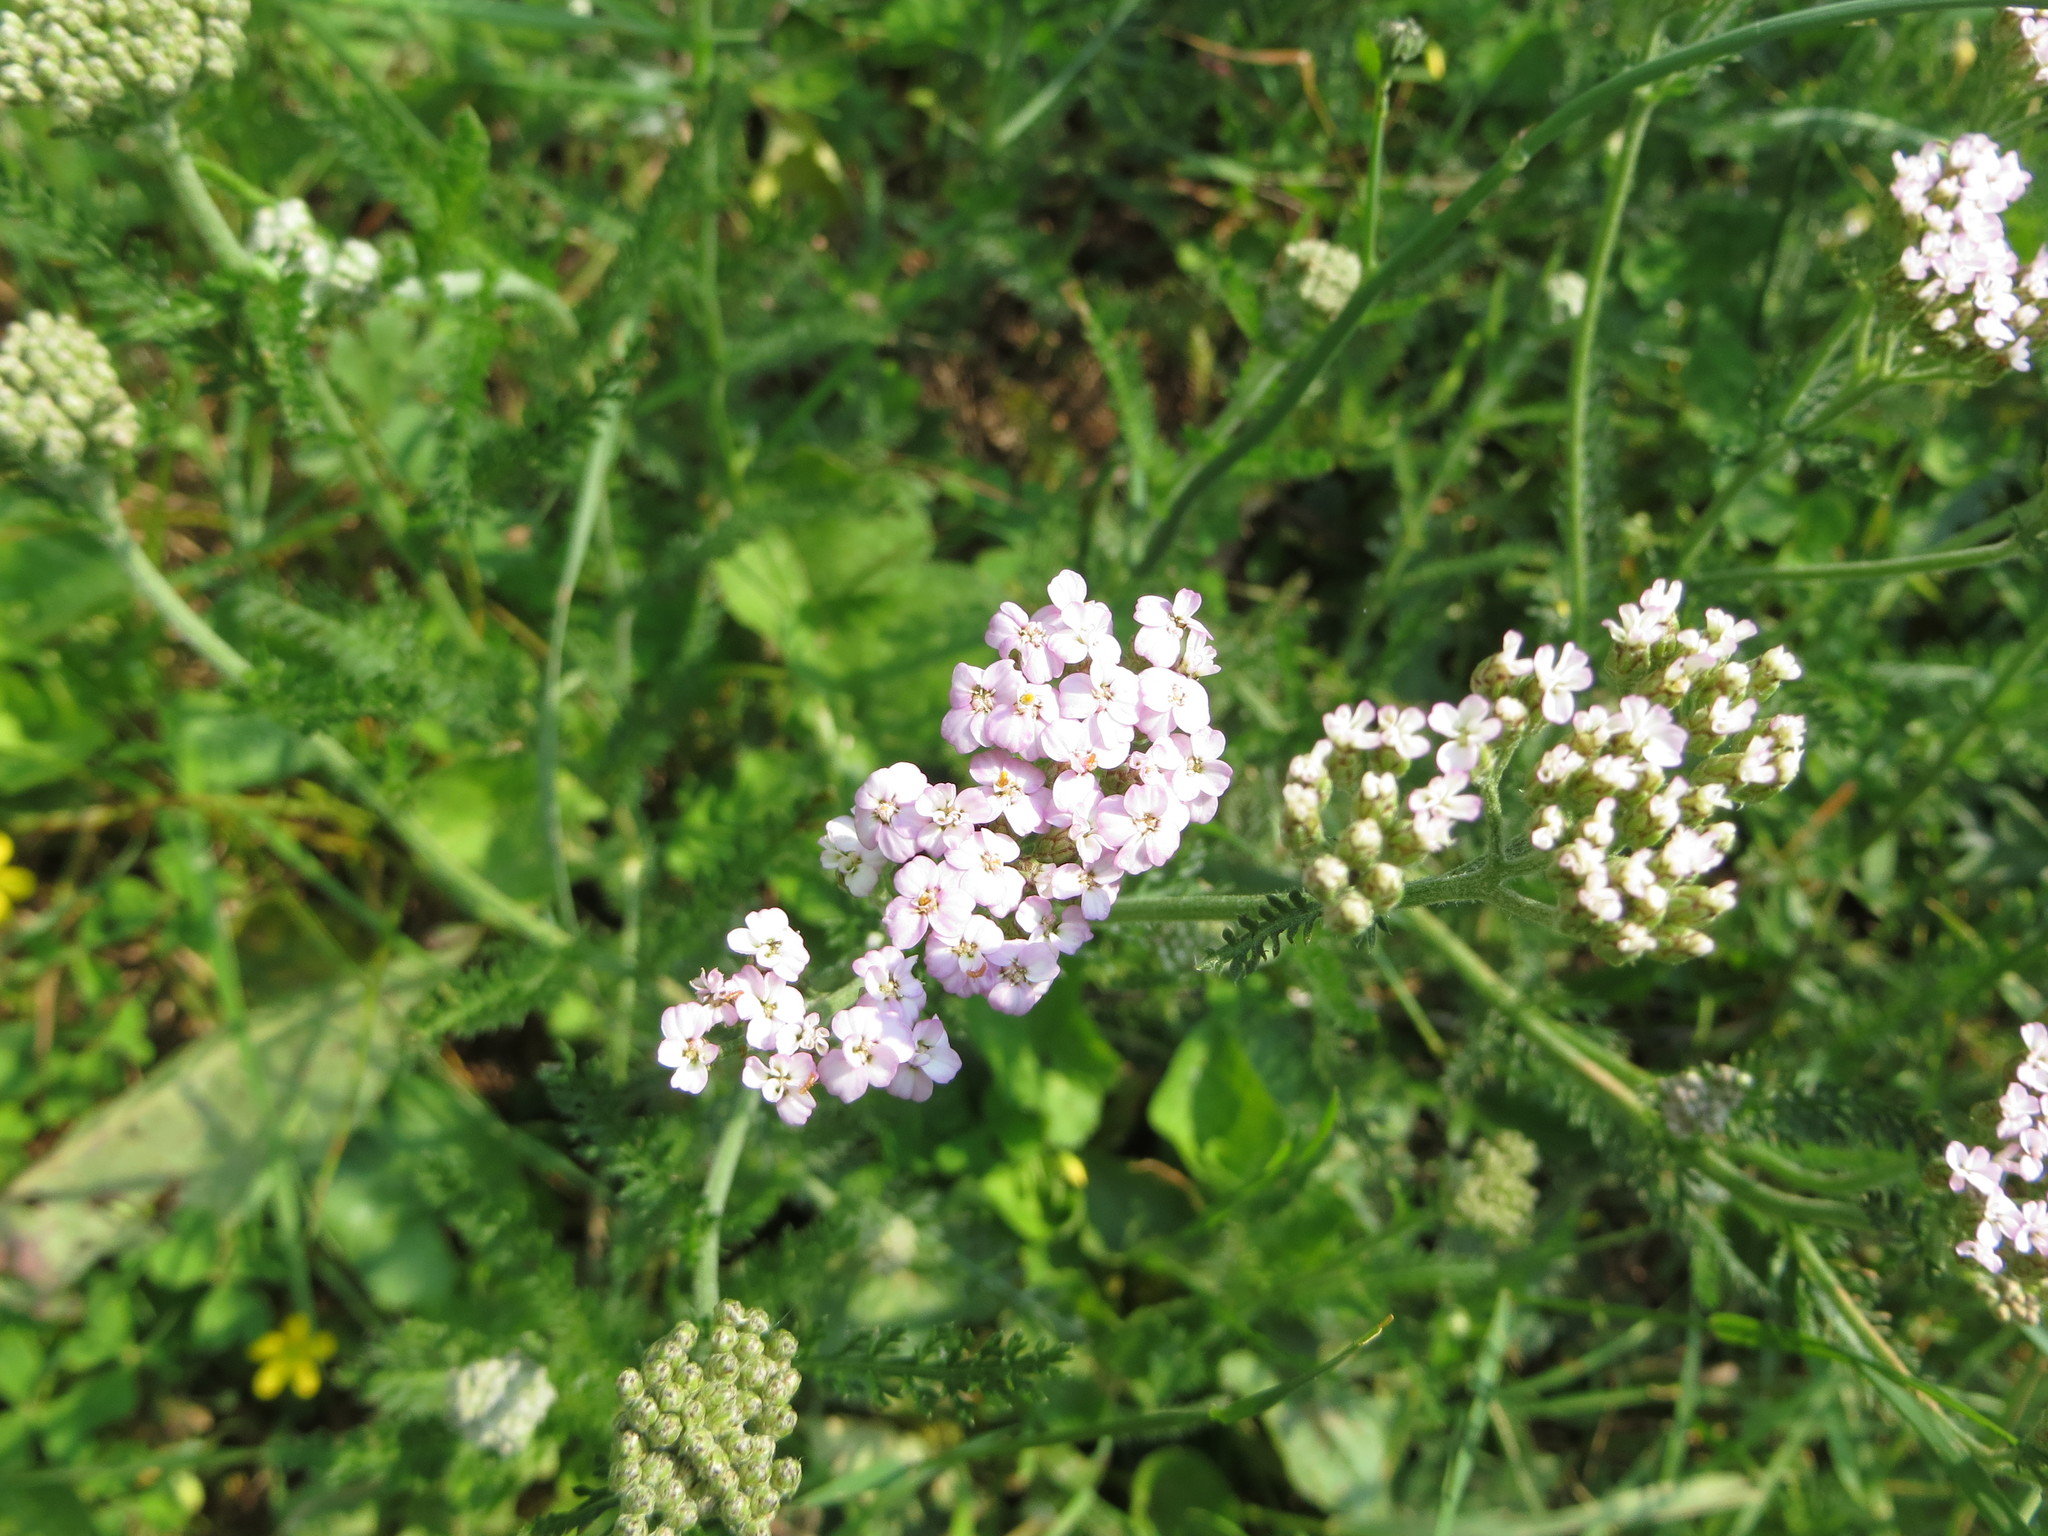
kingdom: Plantae
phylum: Tracheophyta
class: Magnoliopsida
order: Asterales
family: Asteraceae
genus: Achillea
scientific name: Achillea millefolium
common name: Yarrow
